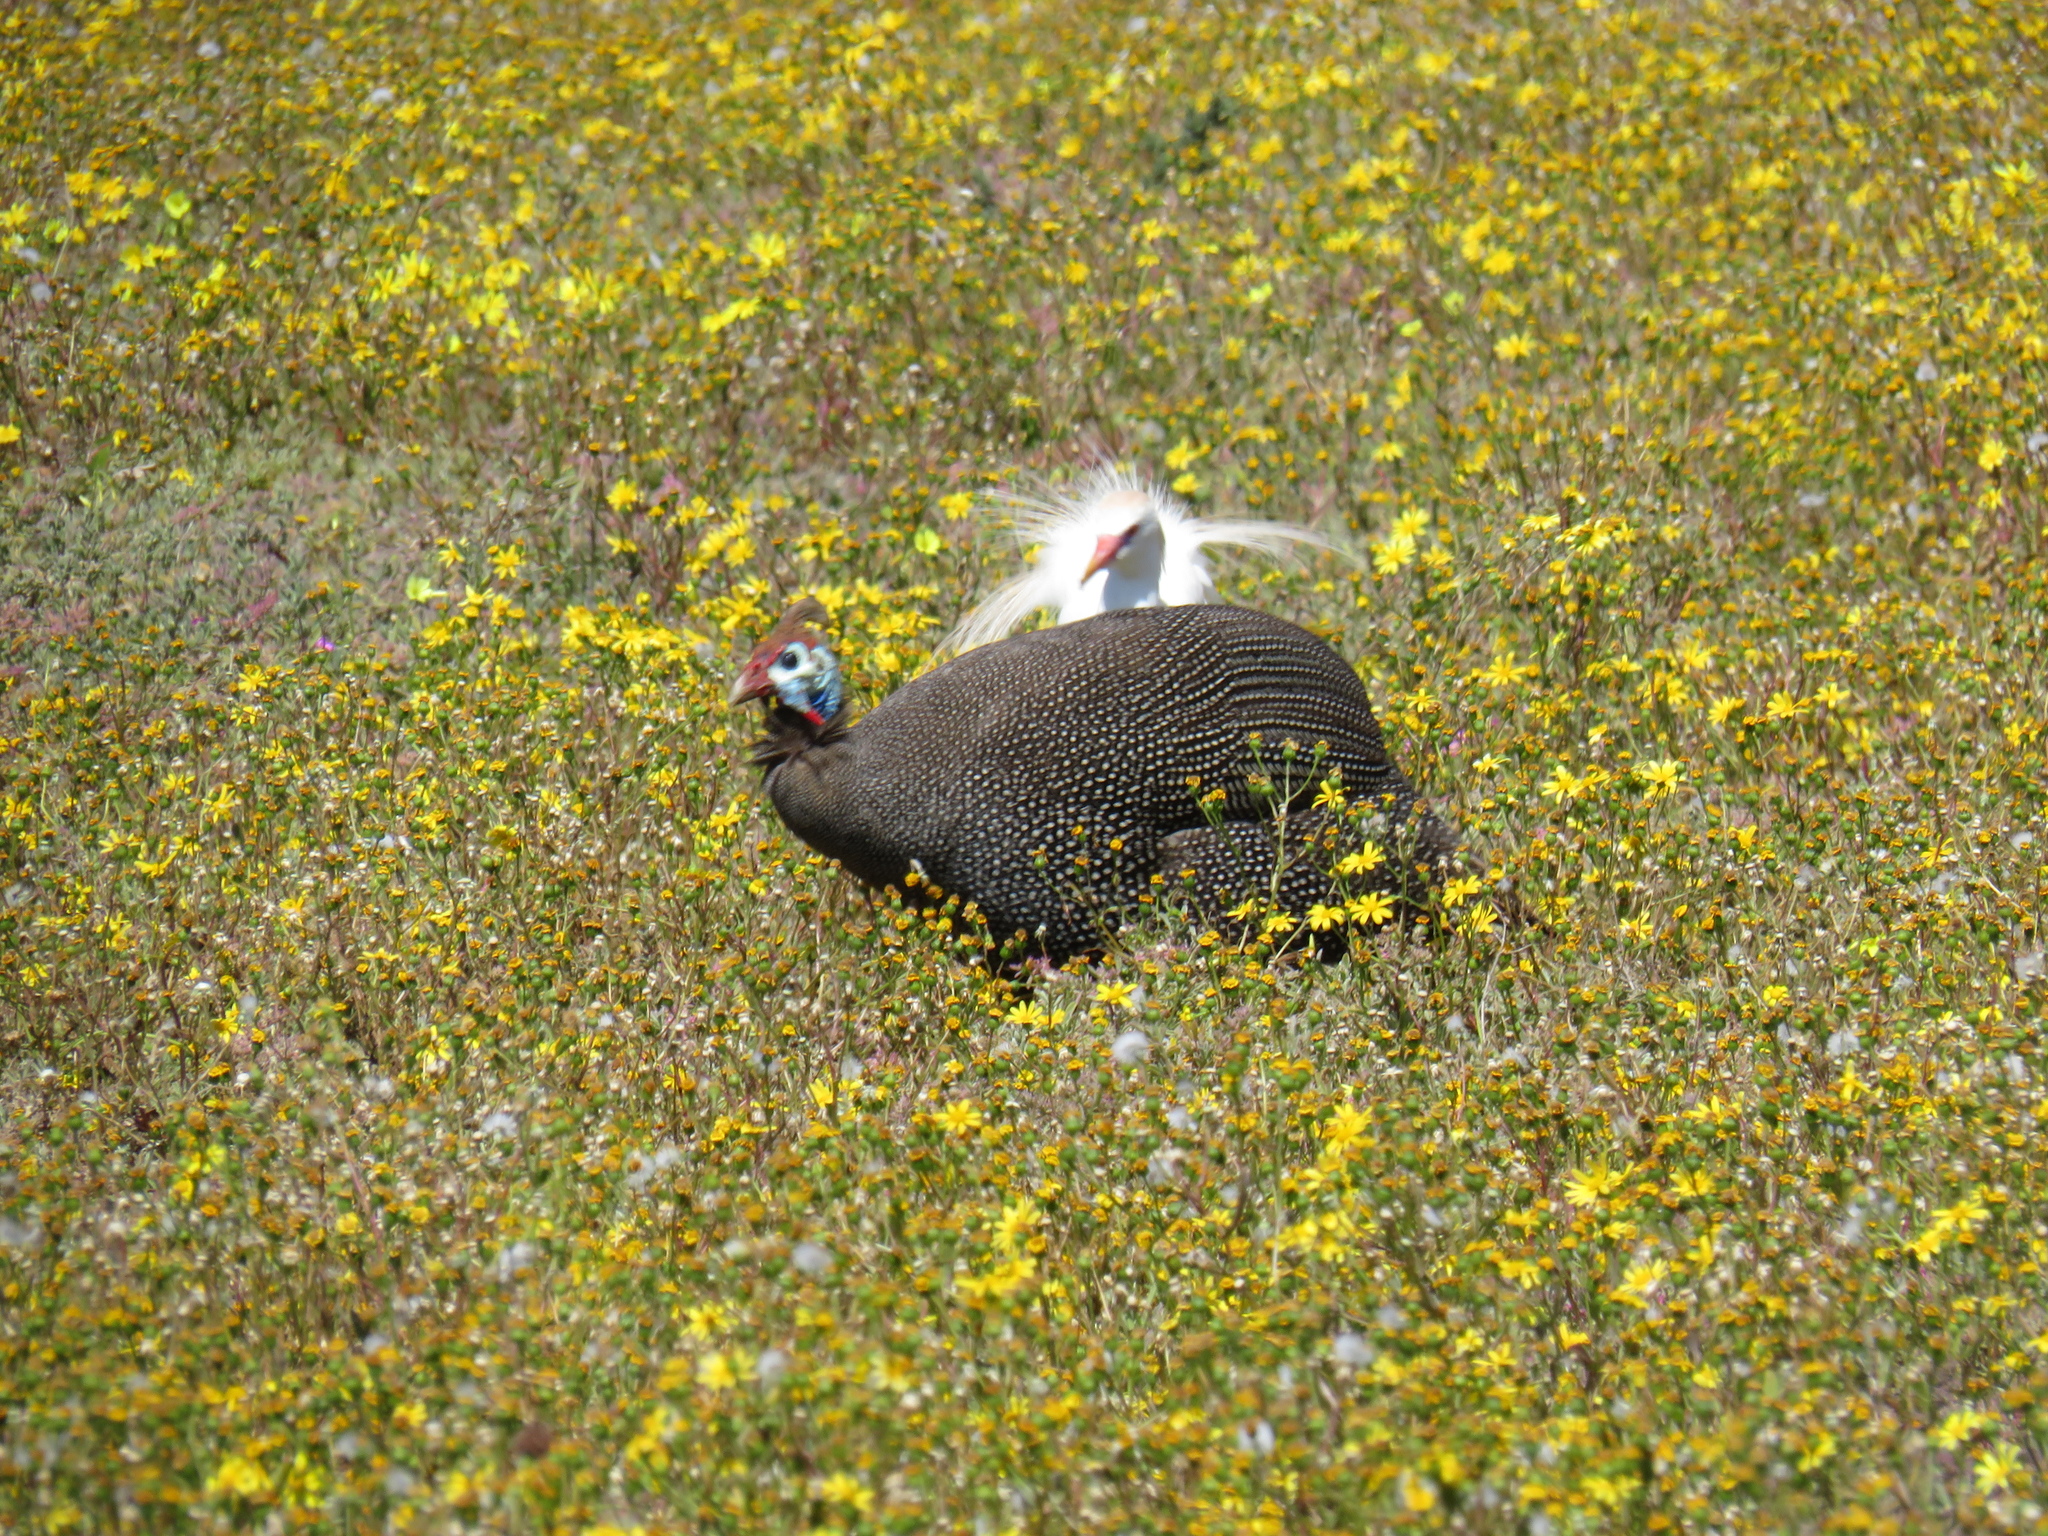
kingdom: Animalia
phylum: Chordata
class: Aves
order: Galliformes
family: Numididae
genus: Numida
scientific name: Numida meleagris
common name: Helmeted guineafowl
